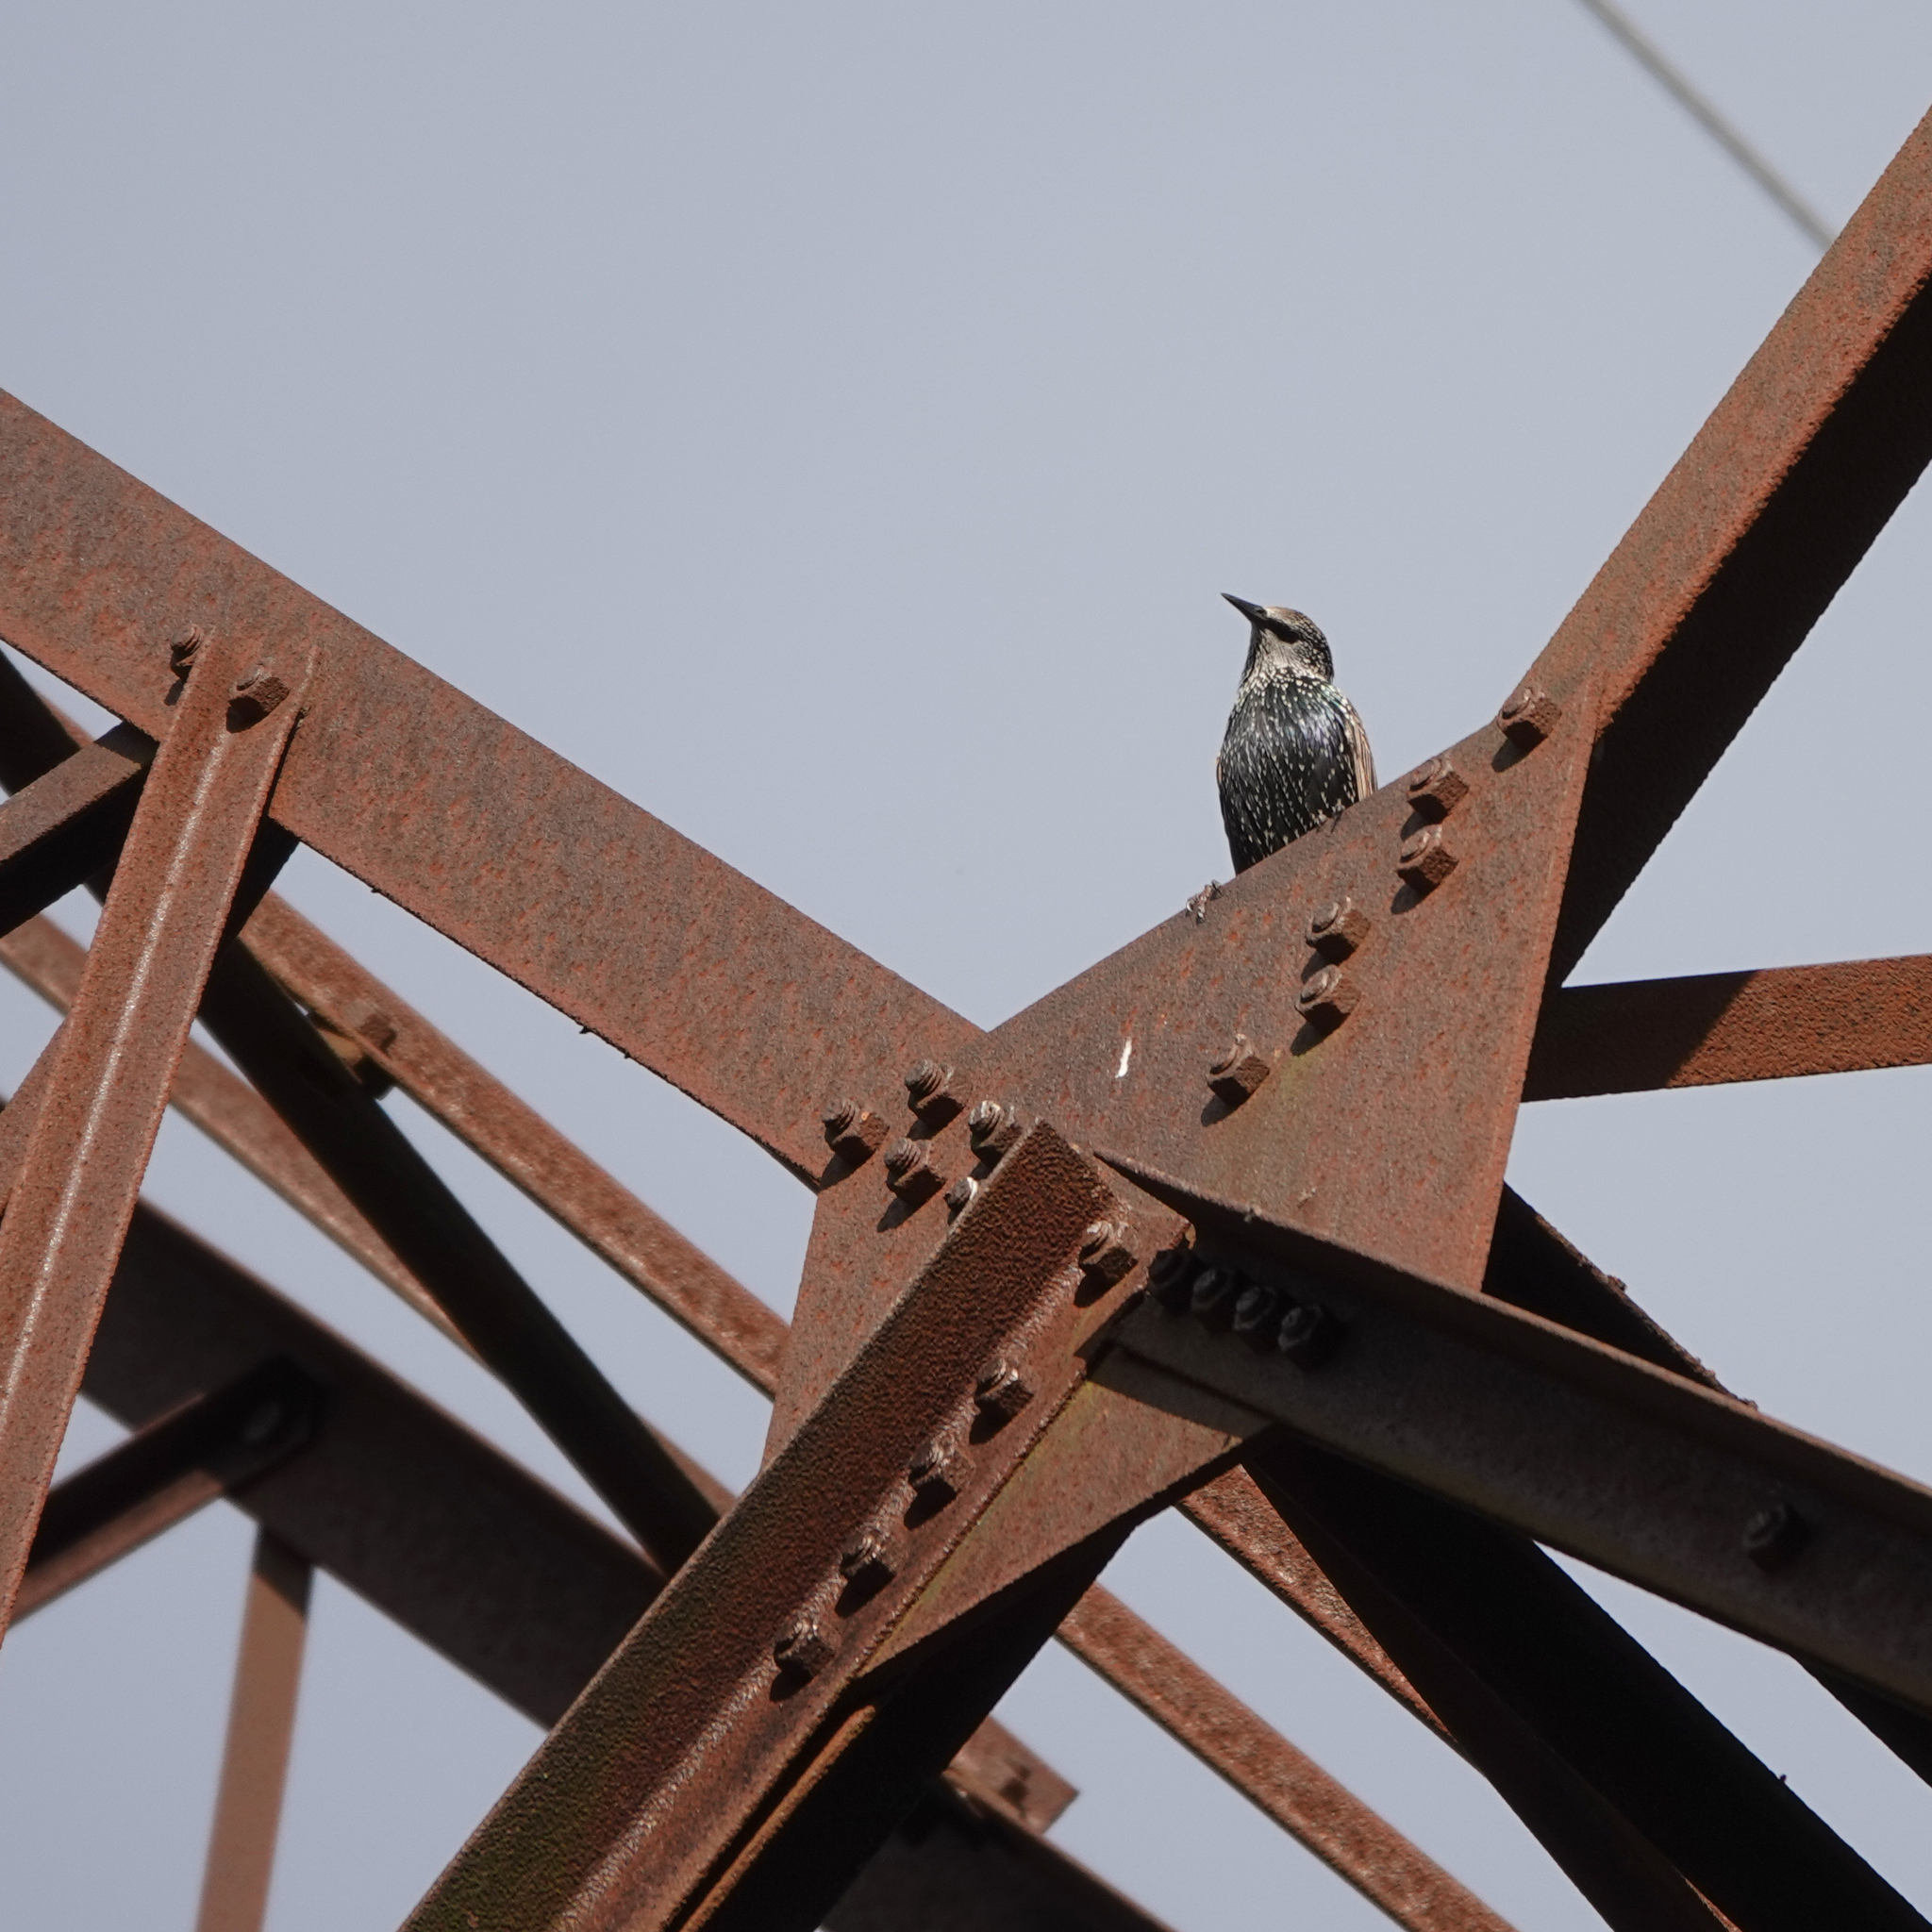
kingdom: Animalia
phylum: Chordata
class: Aves
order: Passeriformes
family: Sturnidae
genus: Sturnus
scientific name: Sturnus vulgaris
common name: Common starling
